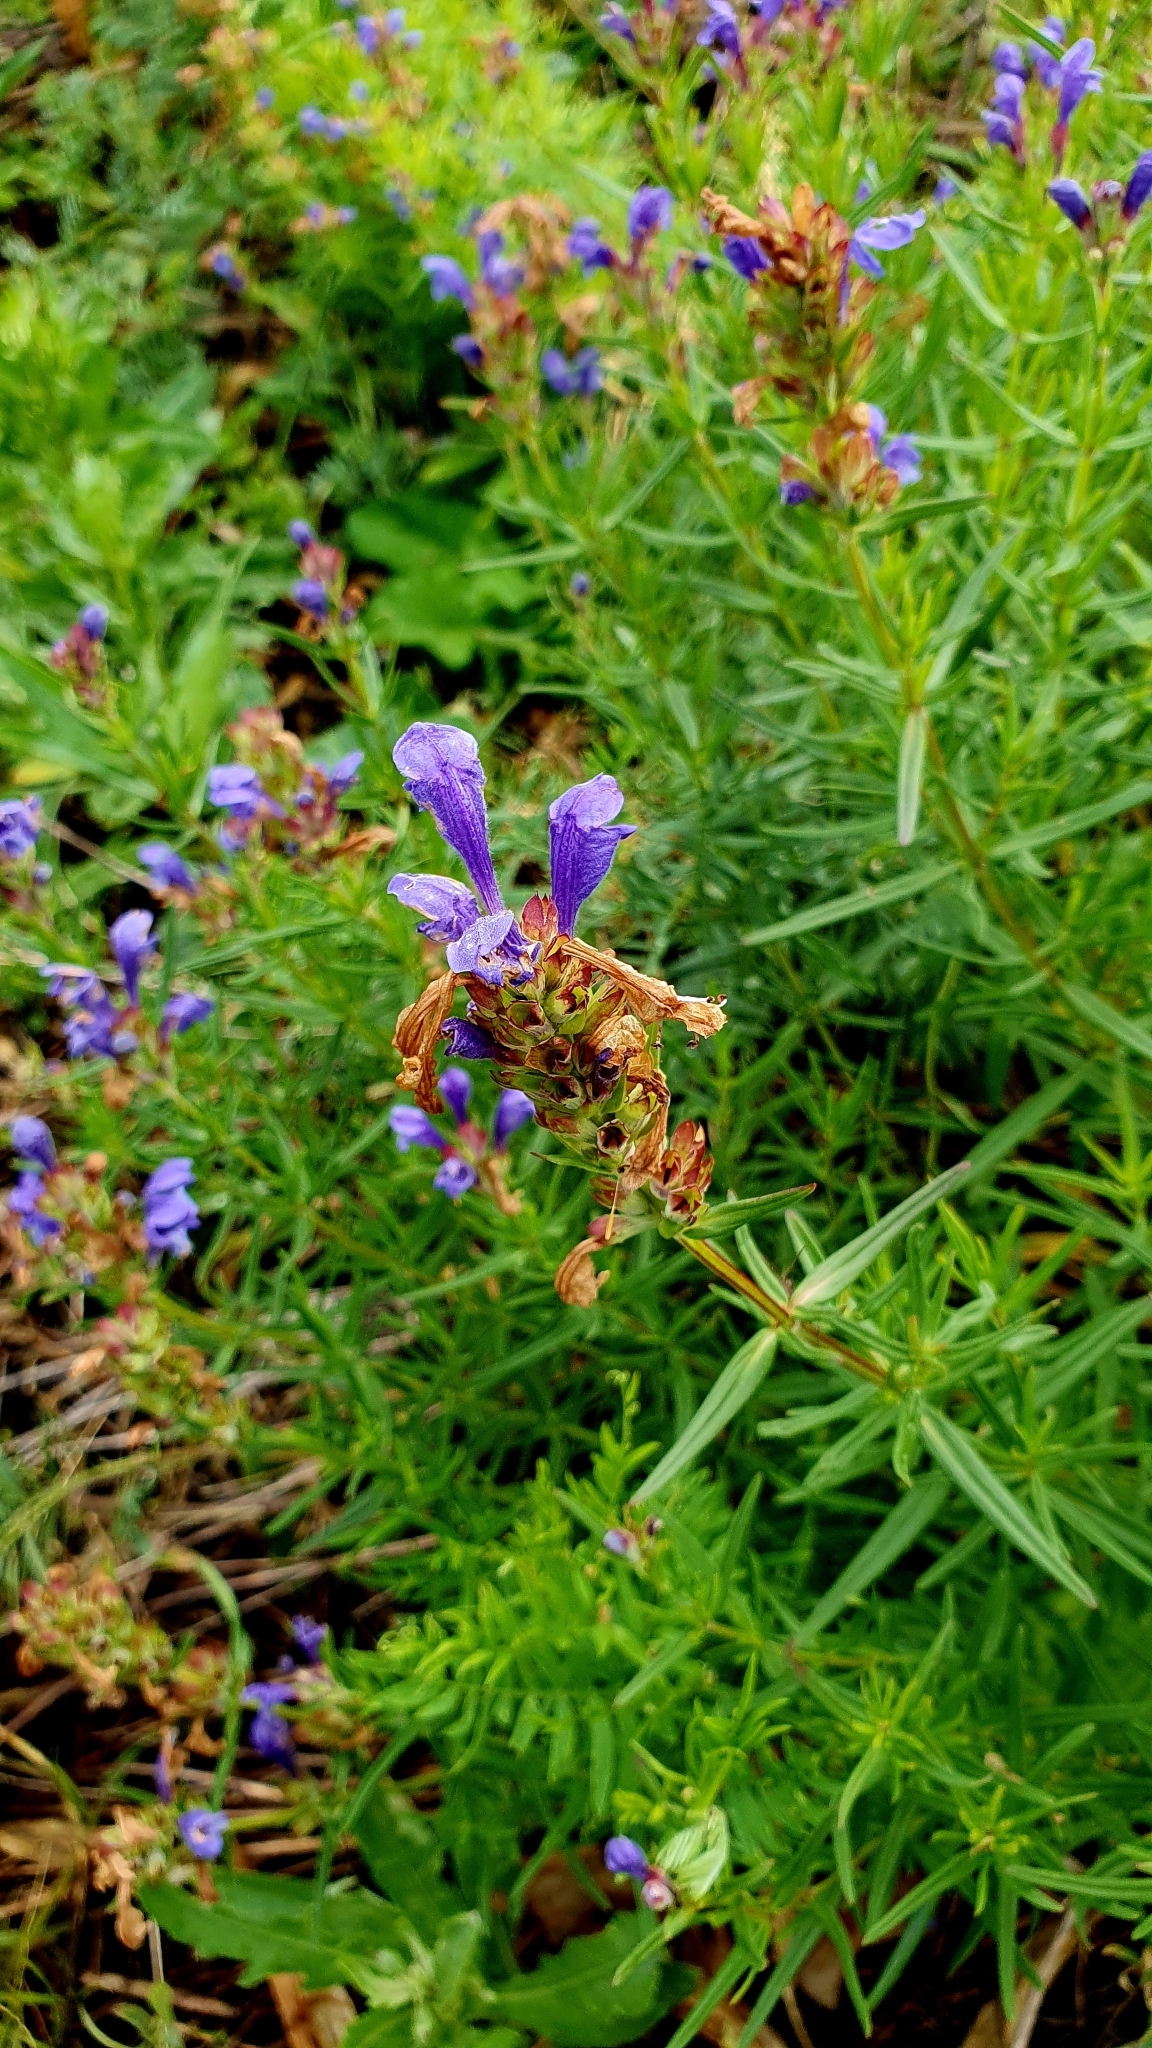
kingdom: Plantae
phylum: Tracheophyta
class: Magnoliopsida
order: Lamiales
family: Lamiaceae
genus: Dracocephalum
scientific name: Dracocephalum ruyschiana
